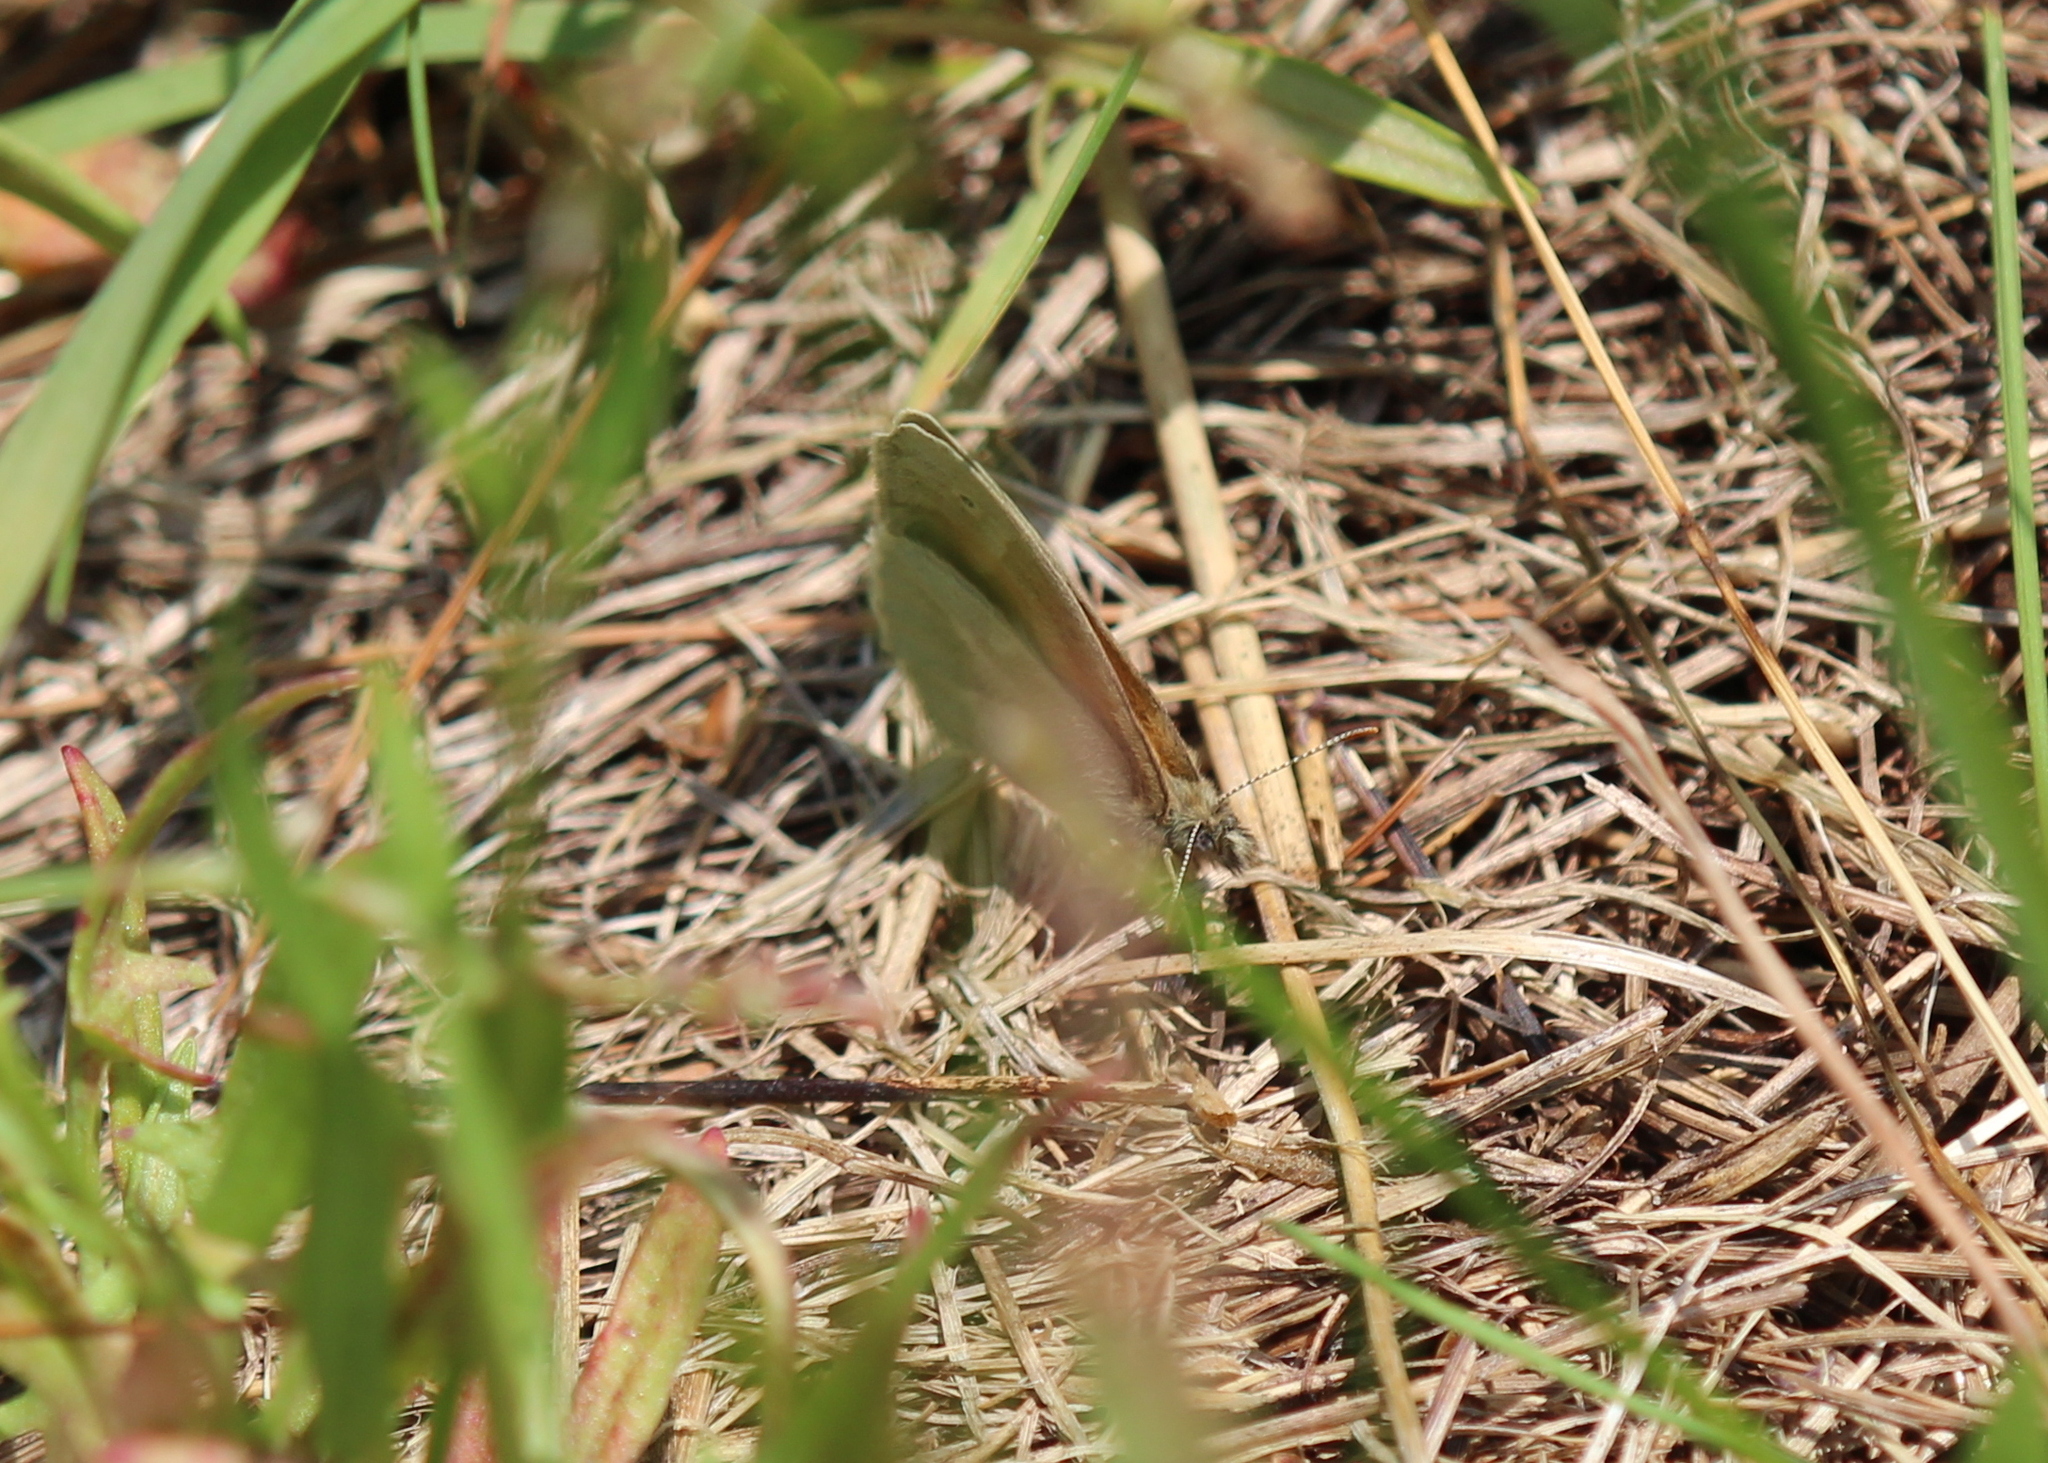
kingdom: Animalia
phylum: Arthropoda
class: Insecta
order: Lepidoptera
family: Nymphalidae
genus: Coenonympha
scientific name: Coenonympha california
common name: Common ringlet
